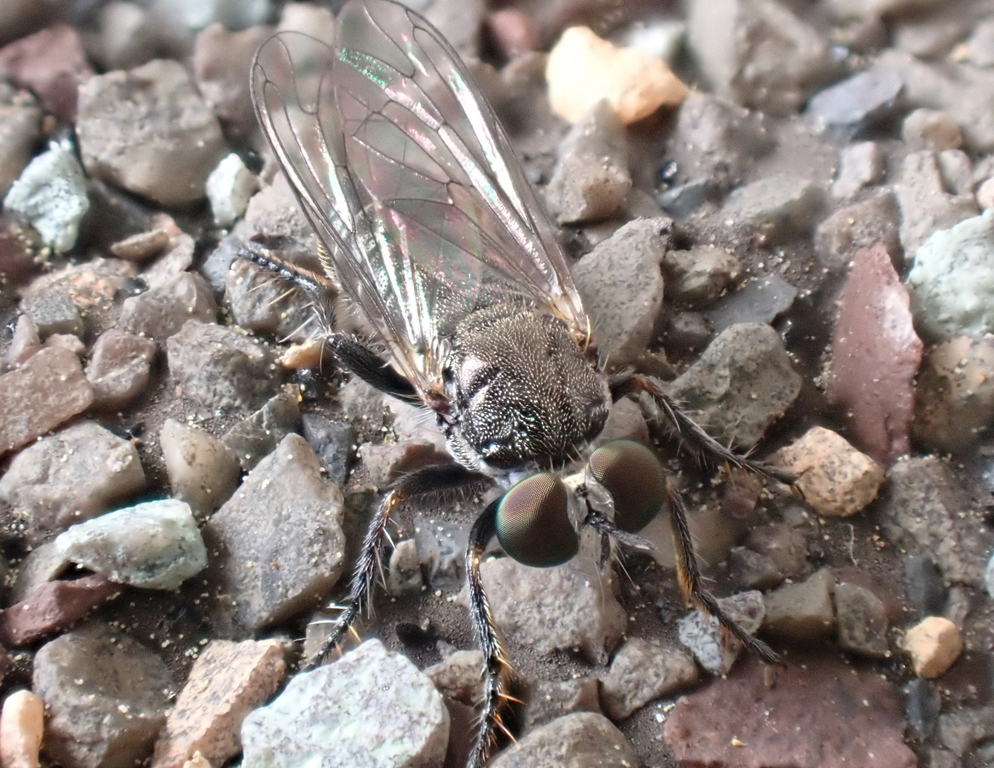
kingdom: Animalia
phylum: Arthropoda
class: Insecta
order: Diptera
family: Asilidae
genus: Atomosia
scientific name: Atomosia puella
